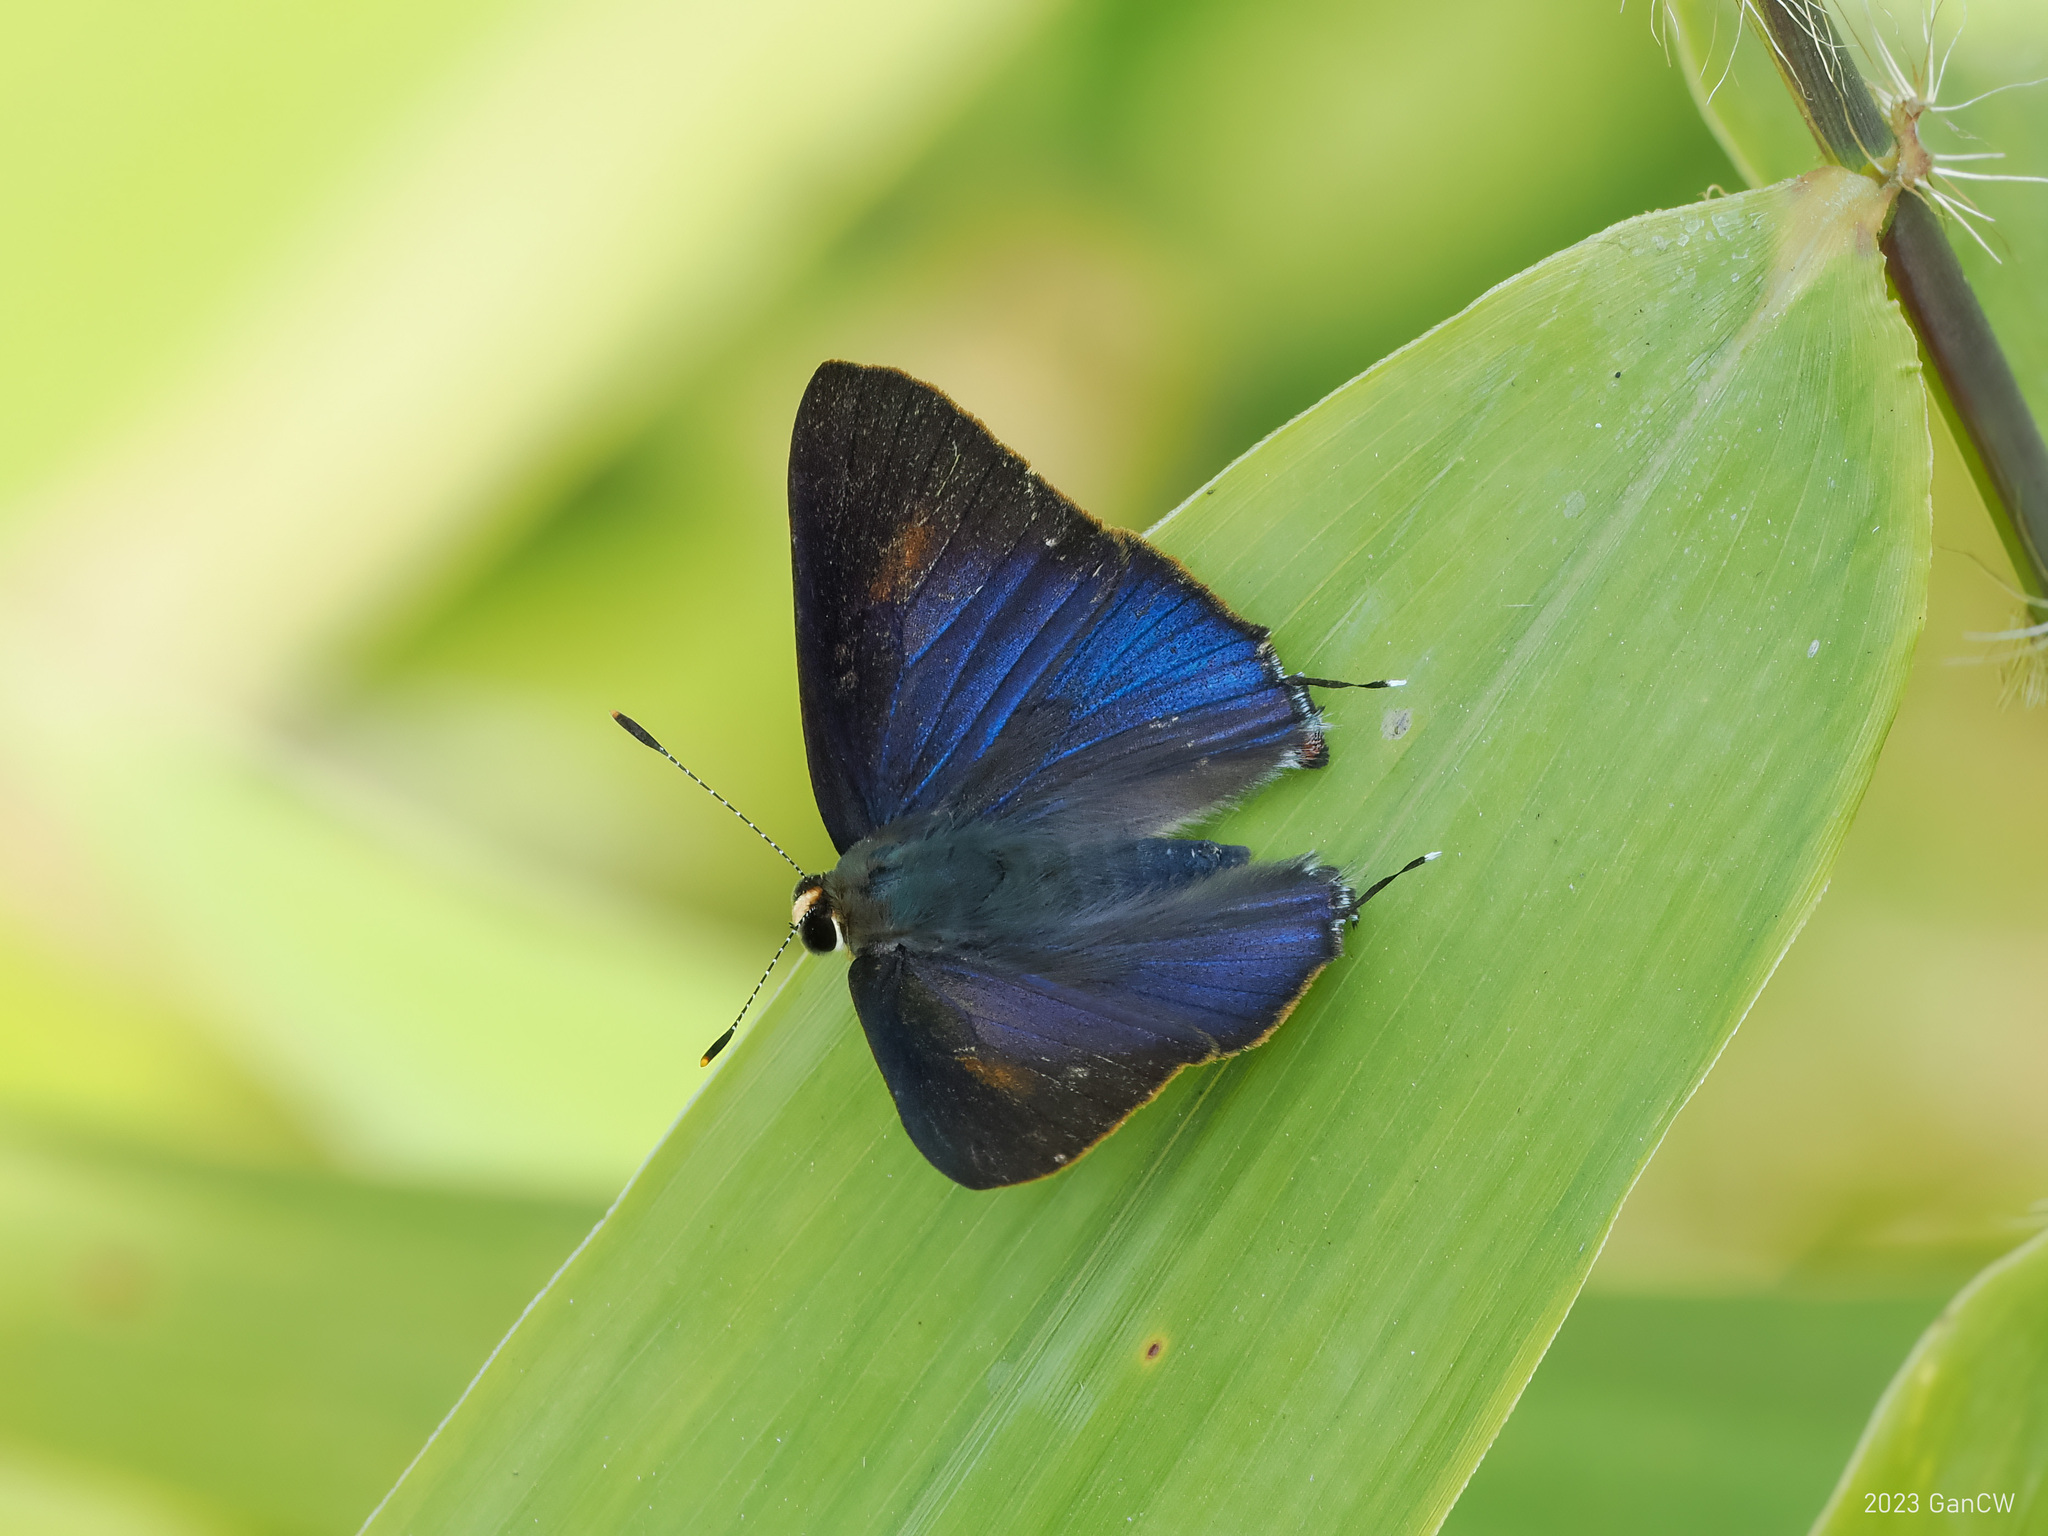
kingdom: Animalia
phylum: Arthropoda
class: Insecta
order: Lepidoptera
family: Lycaenidae
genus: Rapala
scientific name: Rapala nissa
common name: Common flash
